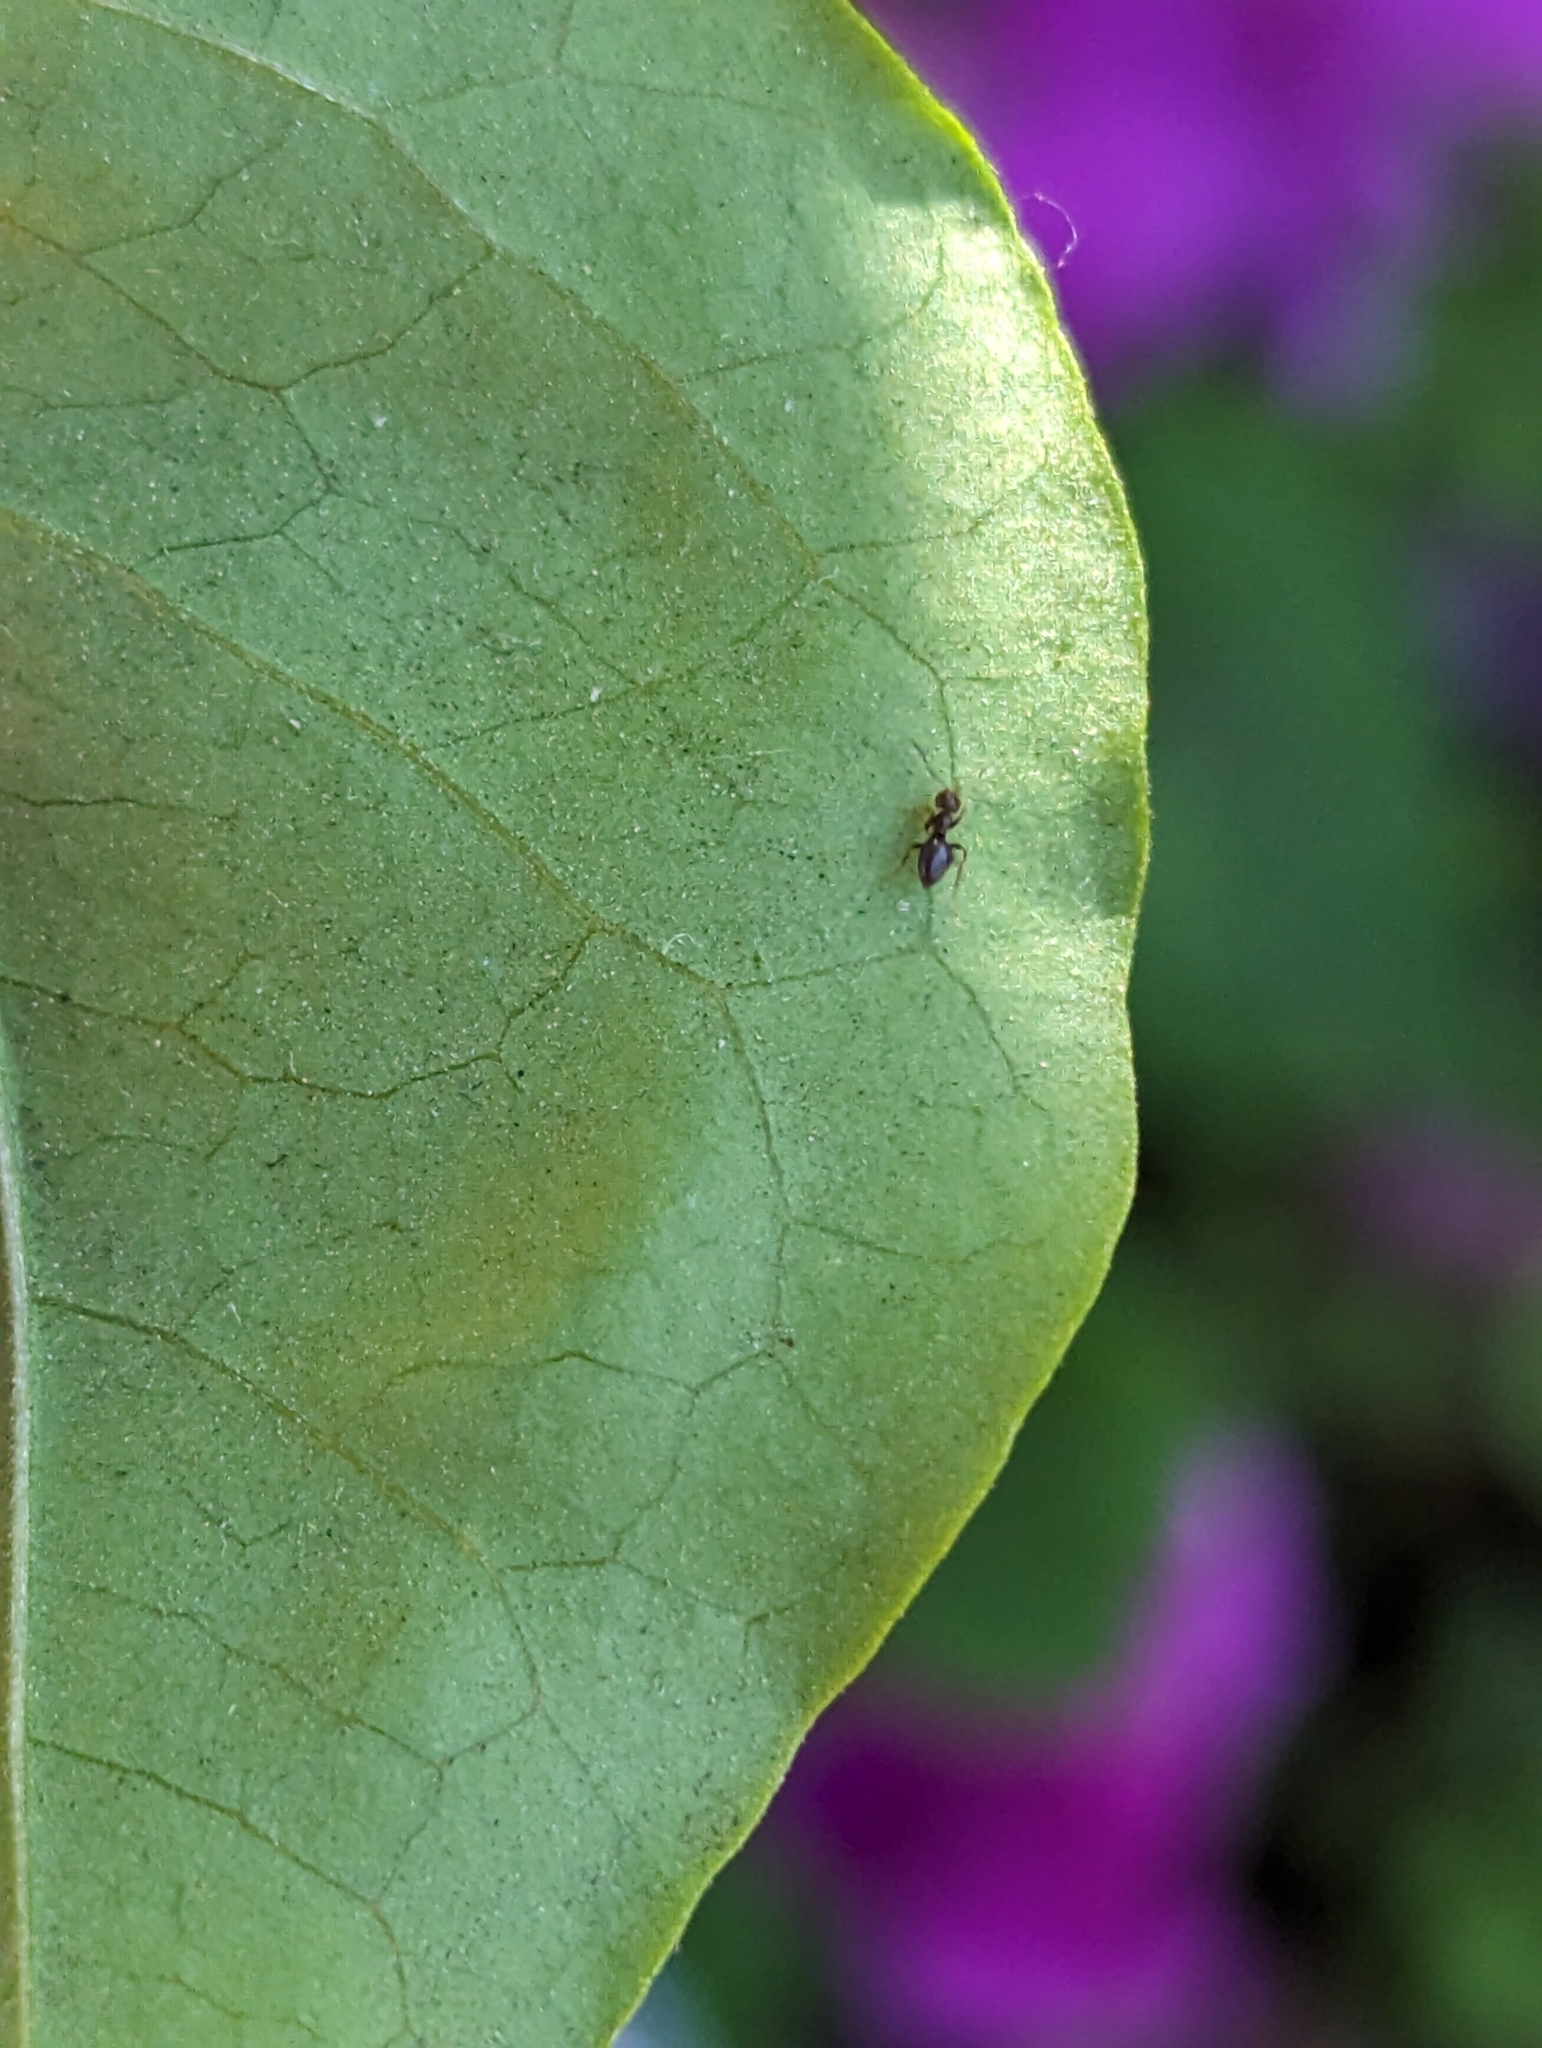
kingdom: Animalia
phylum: Arthropoda
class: Insecta
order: Hymenoptera
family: Formicidae
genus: Brachymyrmex
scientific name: Brachymyrmex patagonicus
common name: Dark rover ant
